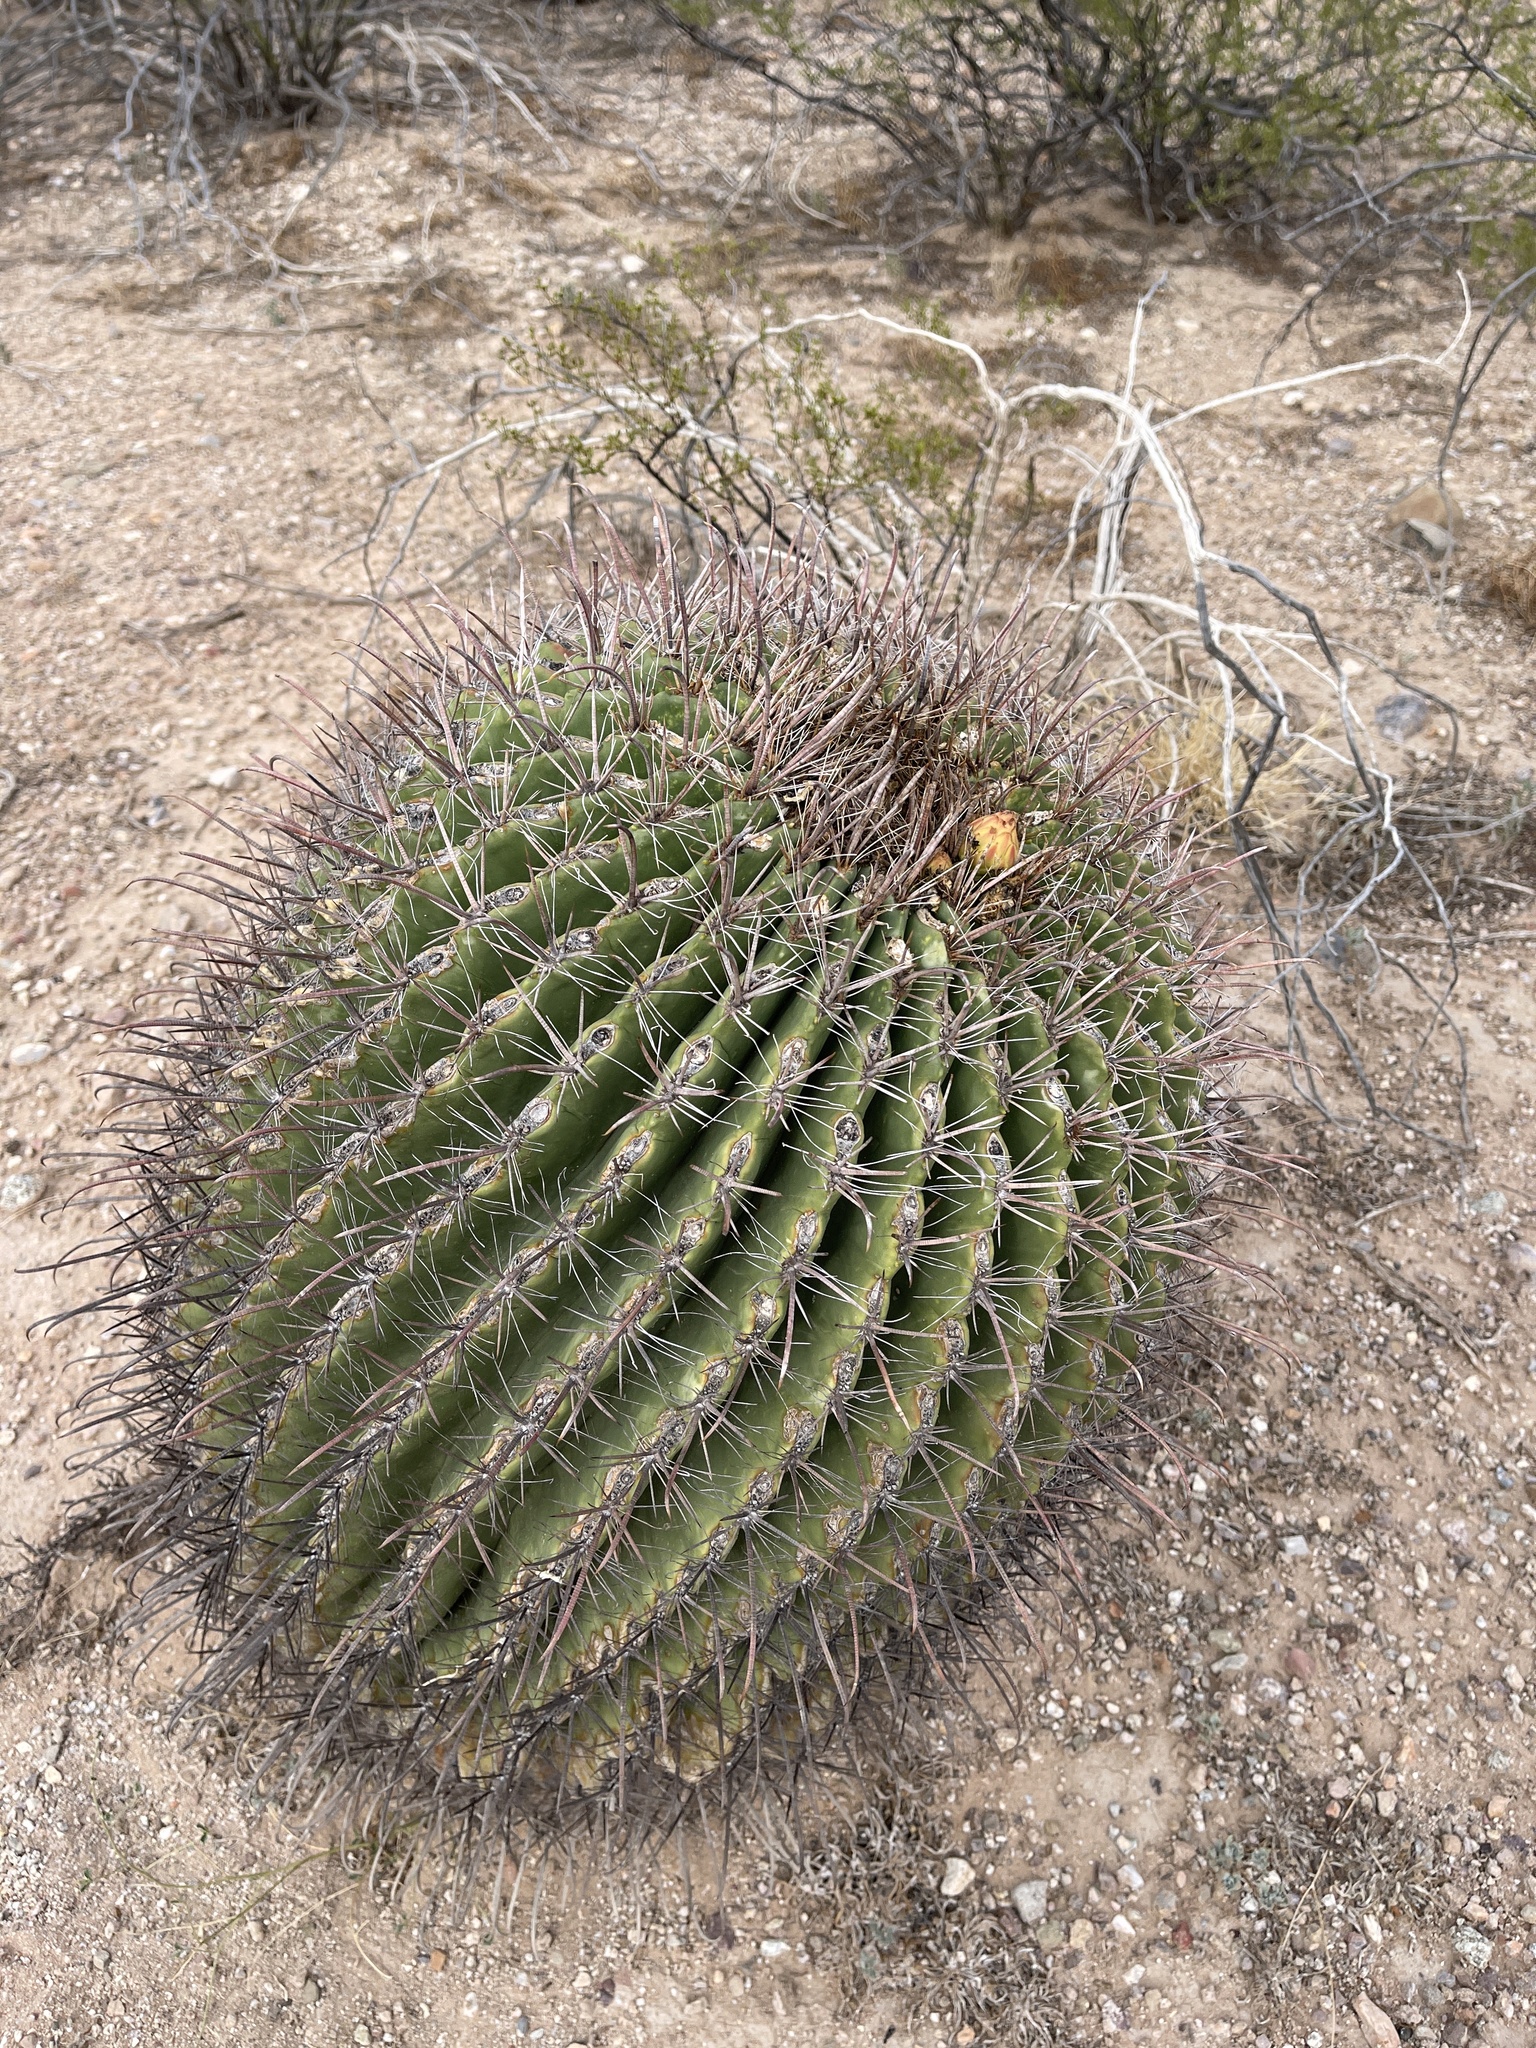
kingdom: Plantae
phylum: Tracheophyta
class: Magnoliopsida
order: Caryophyllales
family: Cactaceae
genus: Ferocactus
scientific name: Ferocactus wislizeni
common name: Candy barrel cactus
